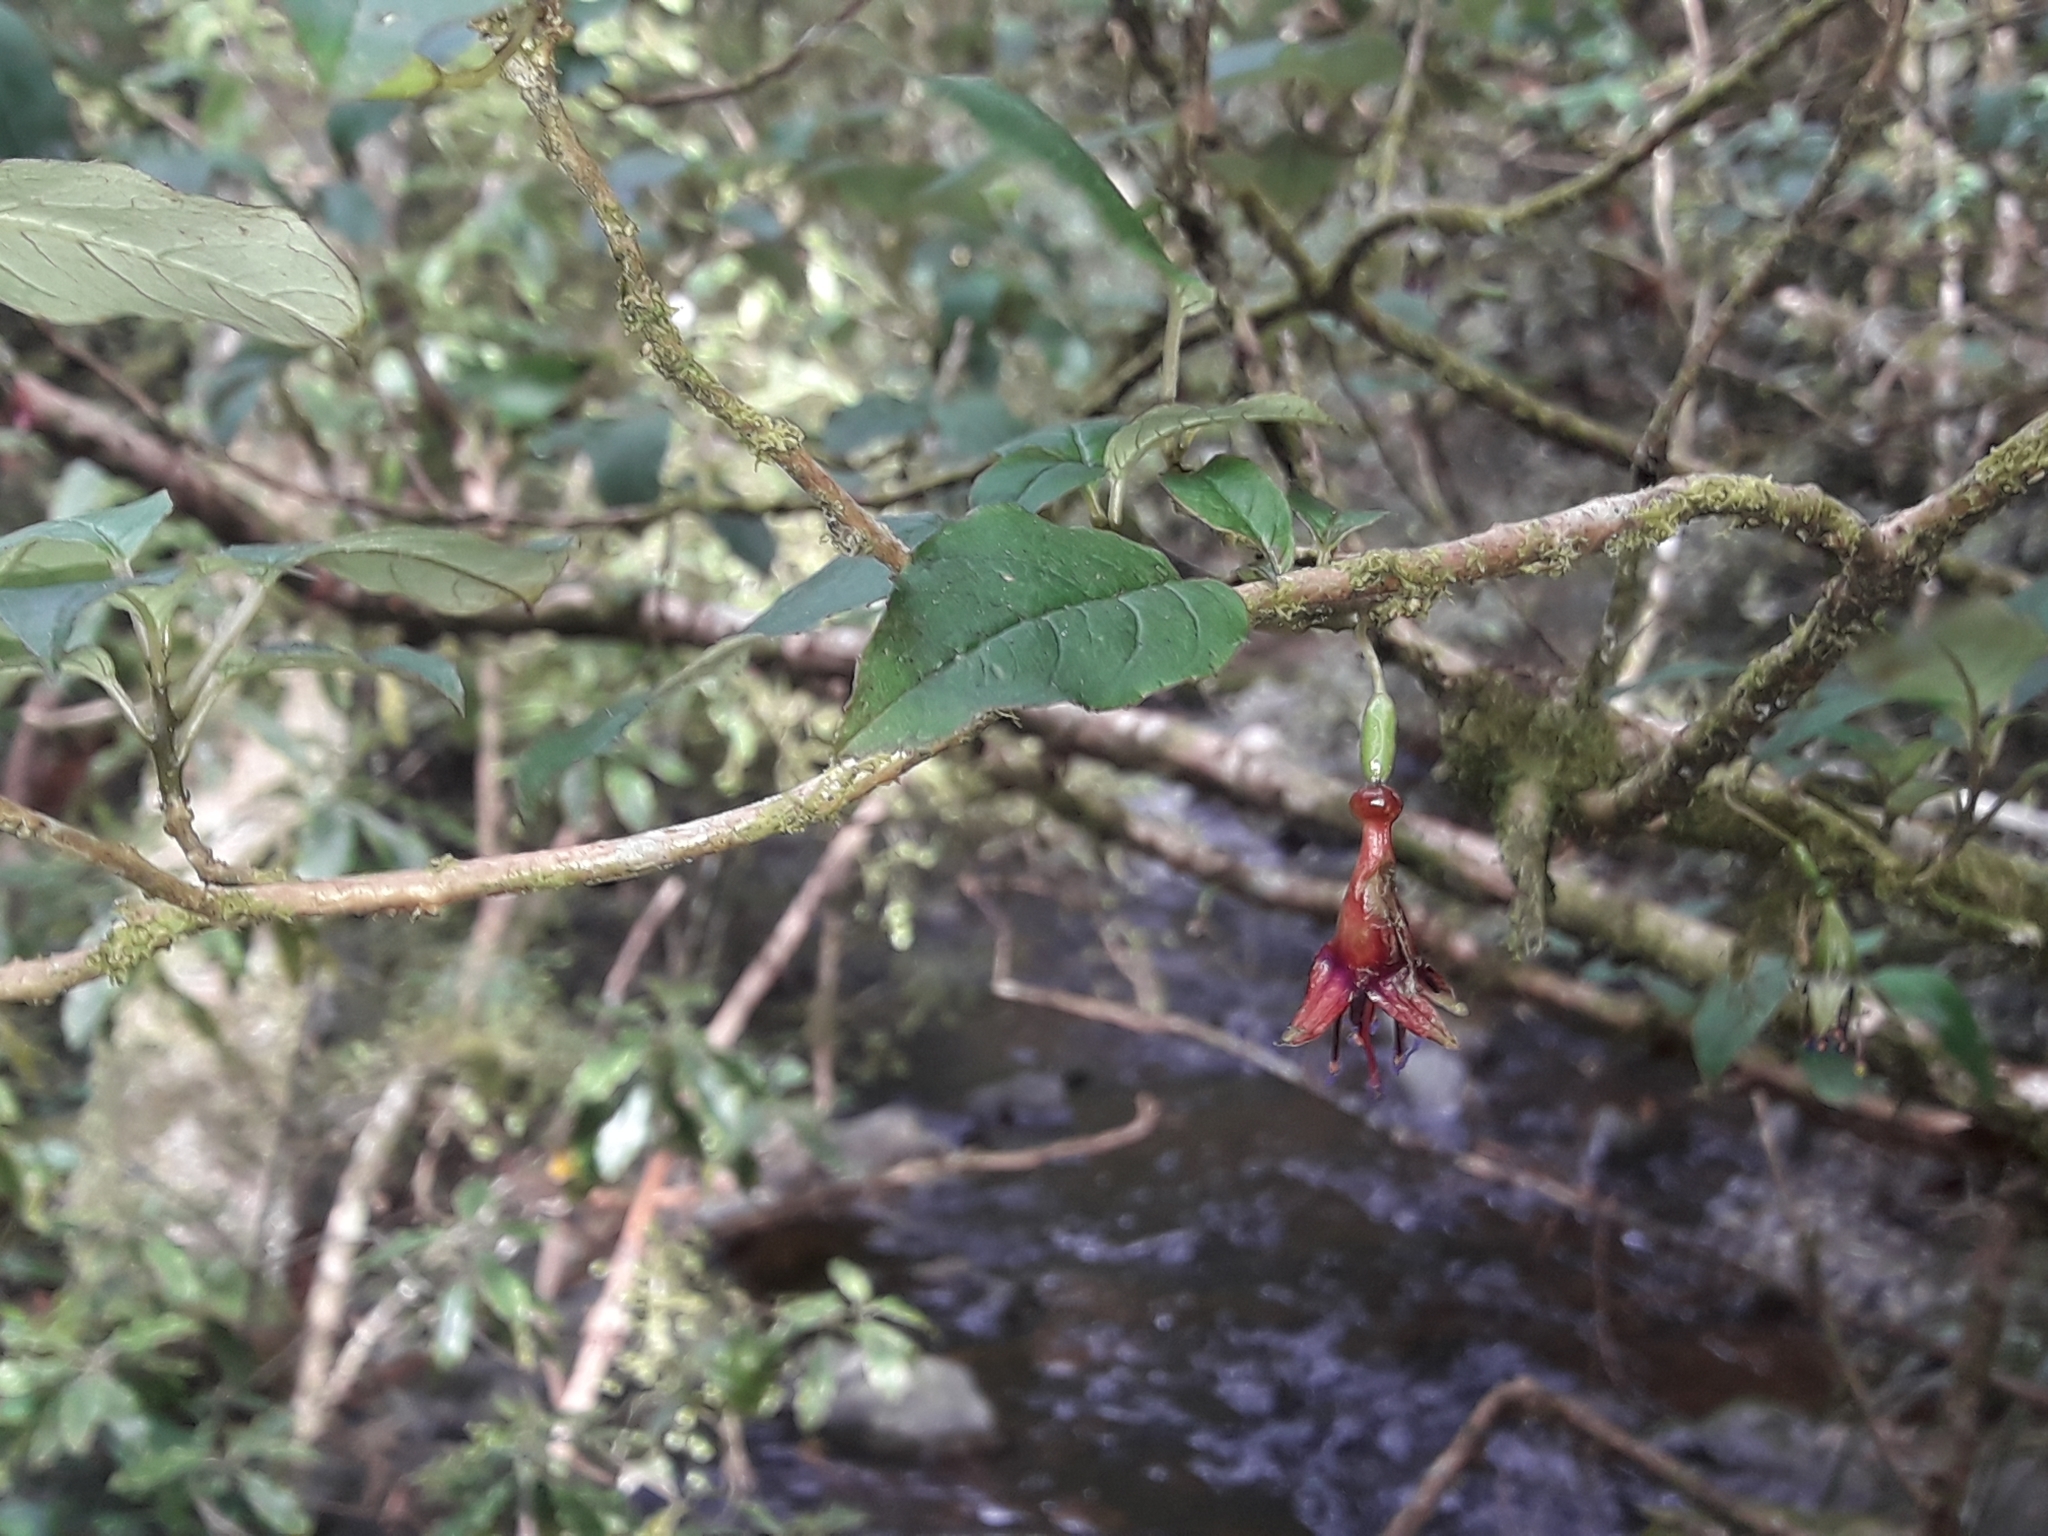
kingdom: Plantae
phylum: Tracheophyta
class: Magnoliopsida
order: Myrtales
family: Onagraceae
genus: Fuchsia
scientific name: Fuchsia excorticata
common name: Tree fuchsia
